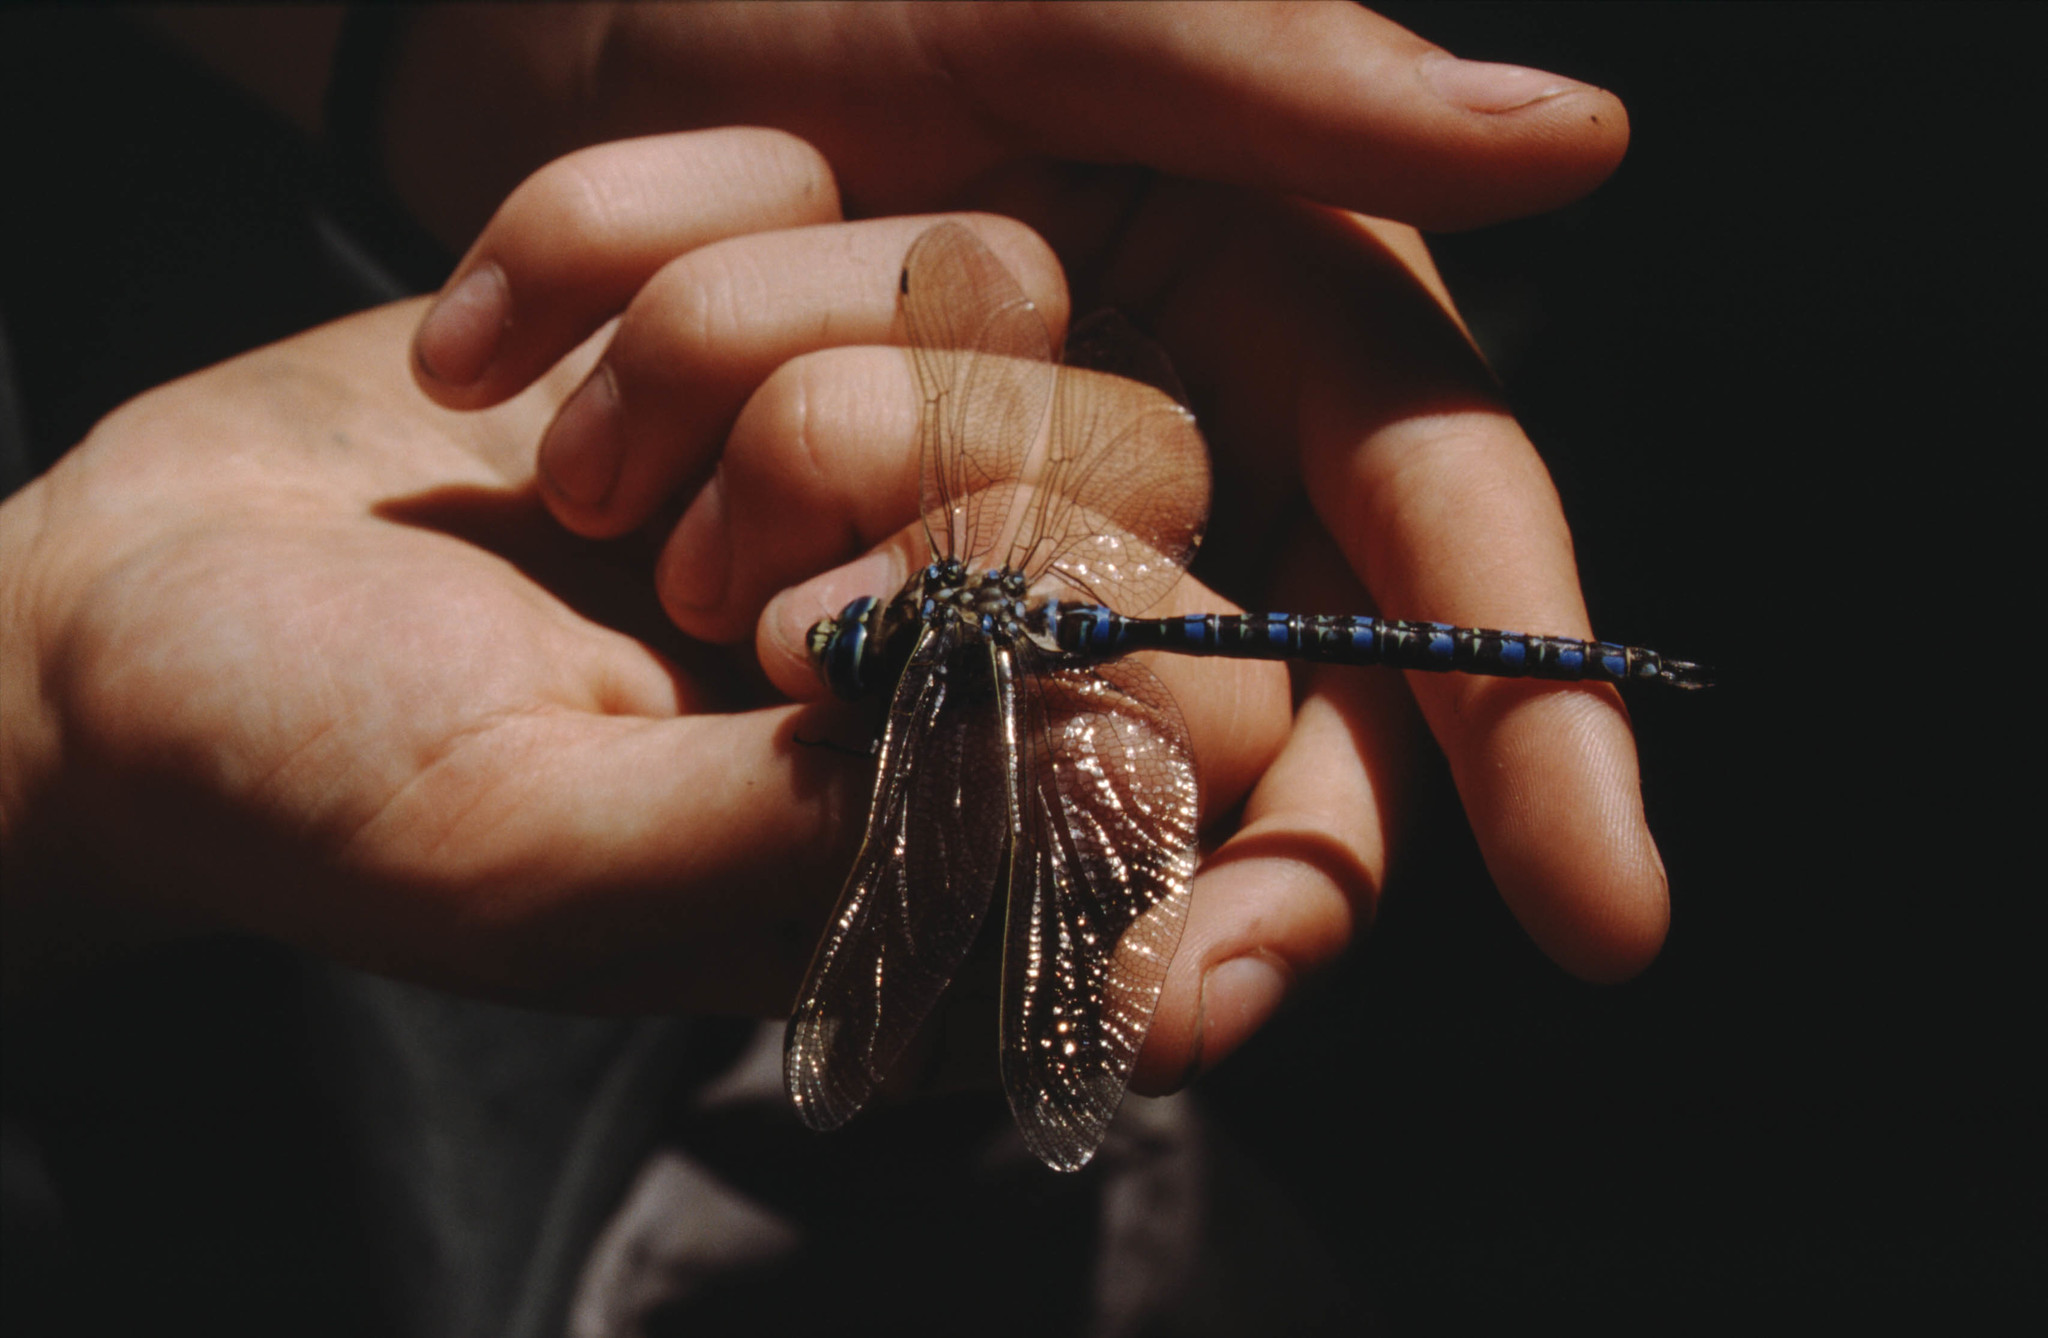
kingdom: Animalia
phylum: Arthropoda
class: Insecta
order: Odonata
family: Aeshnidae
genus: Aeshna
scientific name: Aeshna serrata
